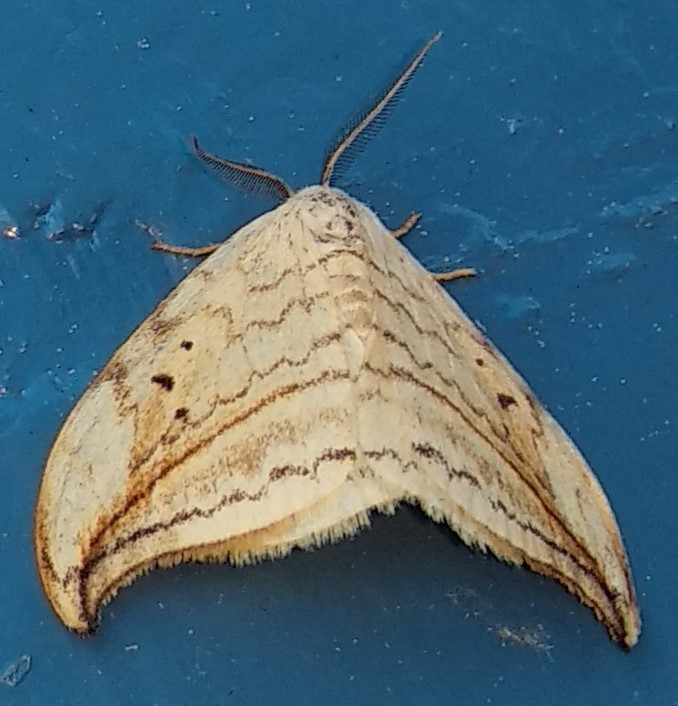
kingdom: Animalia
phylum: Arthropoda
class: Insecta
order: Lepidoptera
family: Drepanidae
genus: Drepana
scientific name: Drepana arcuata
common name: Arched hooktip moth
